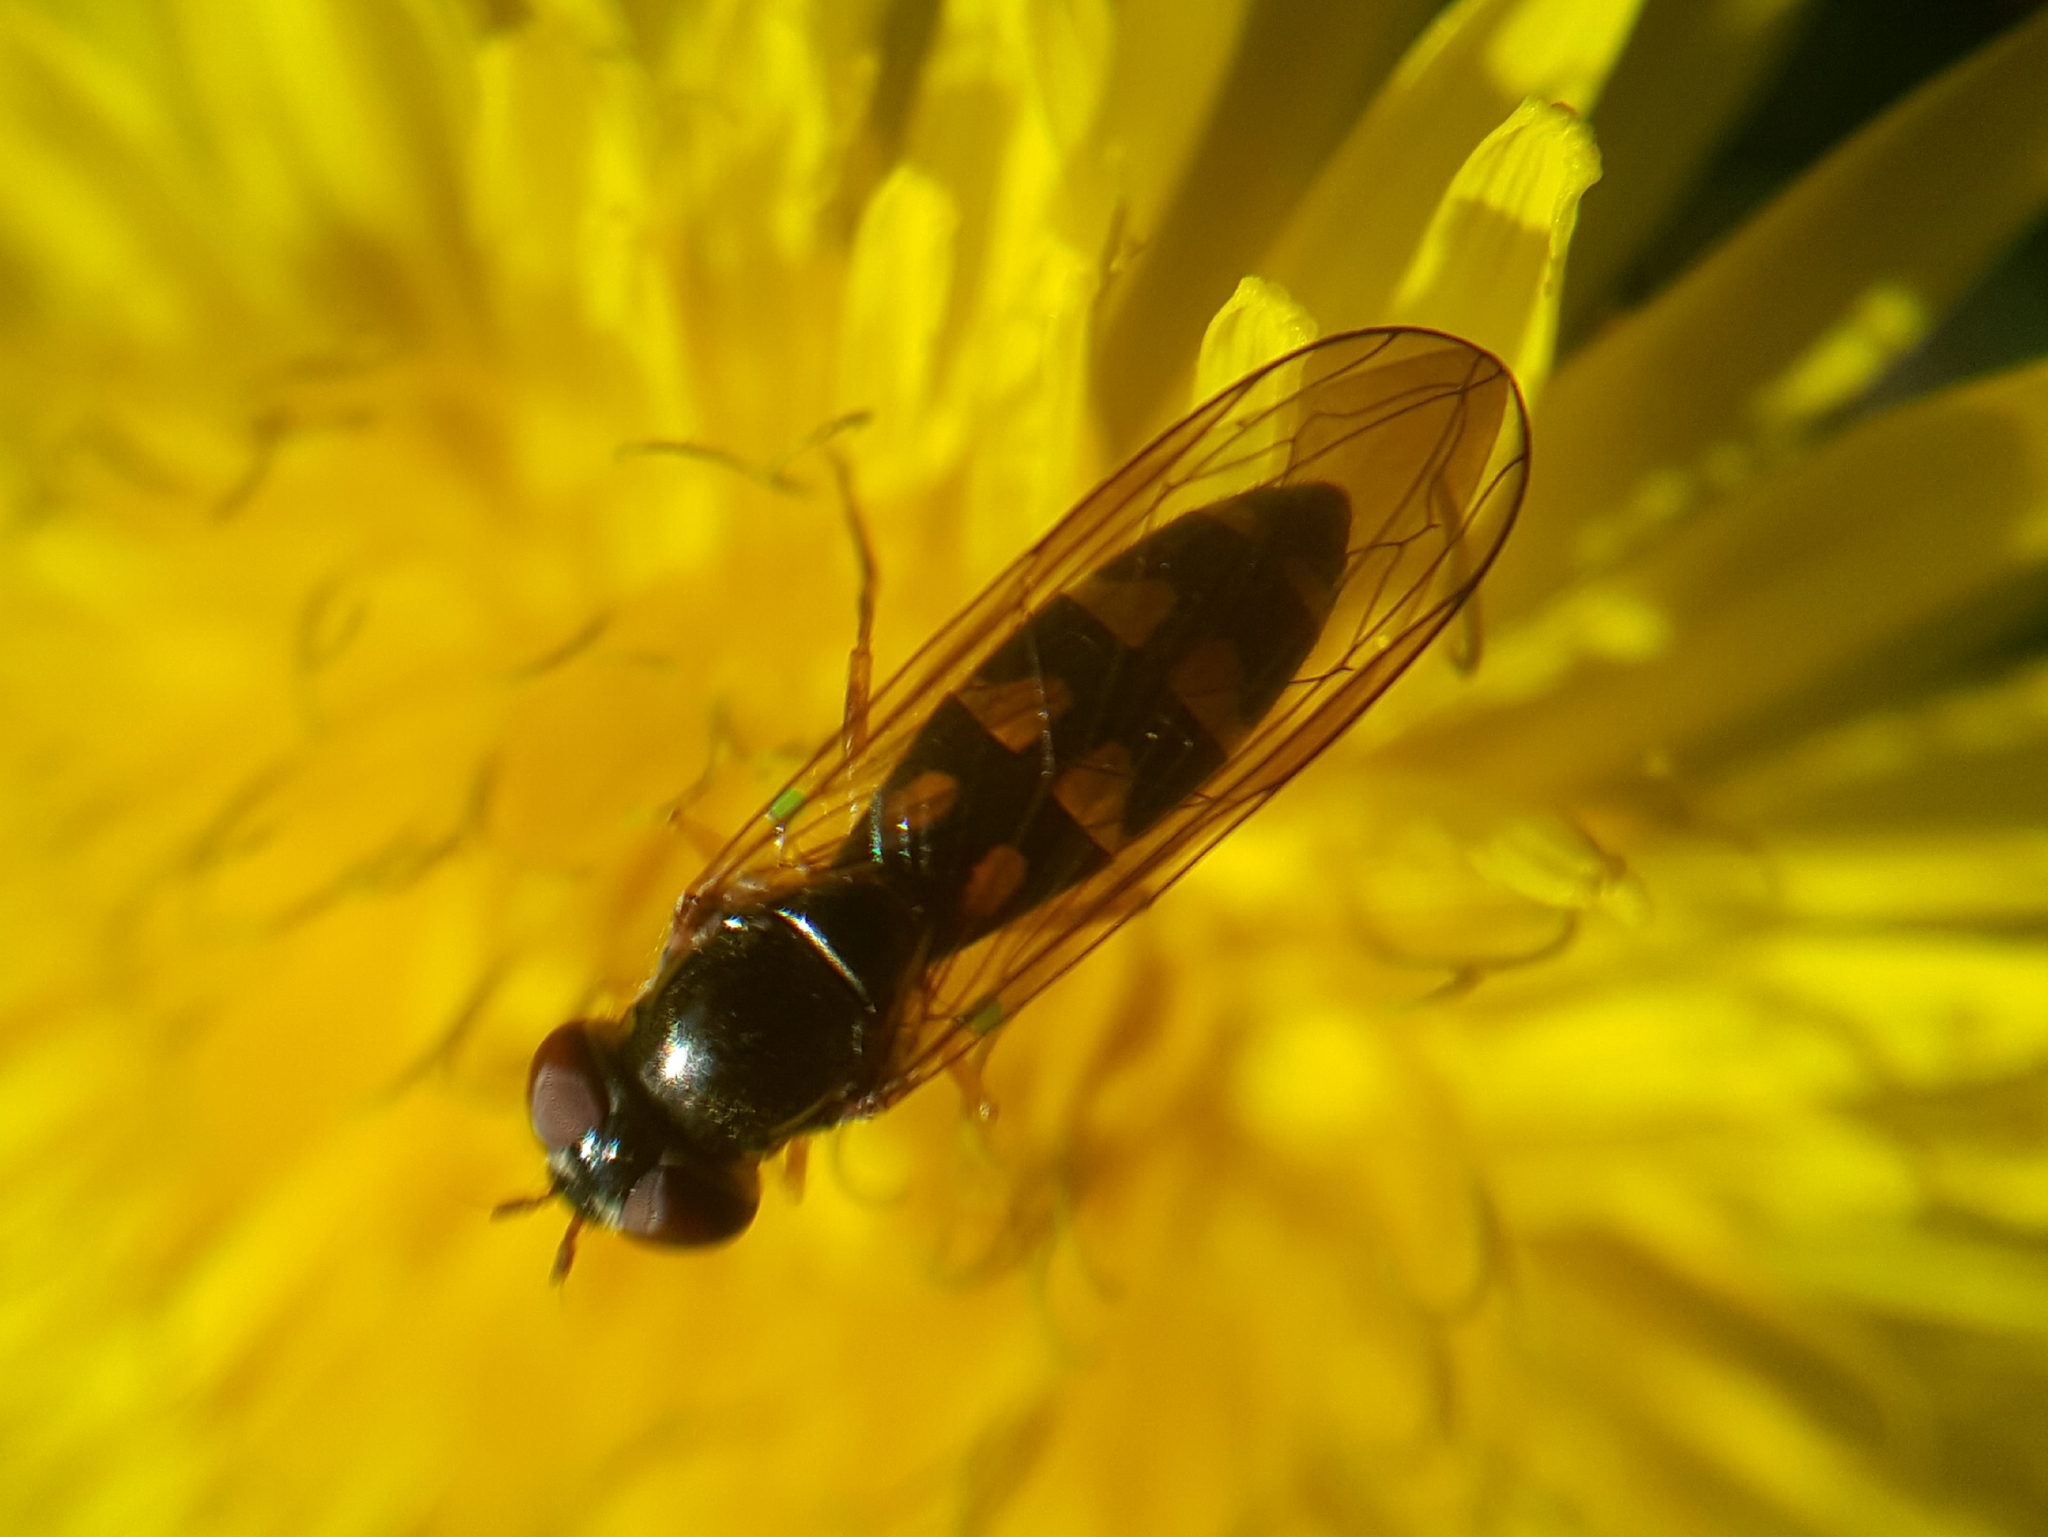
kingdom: Animalia
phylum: Arthropoda
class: Insecta
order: Diptera
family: Syrphidae
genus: Melanostoma
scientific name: Melanostoma mellina
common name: Hover fly
